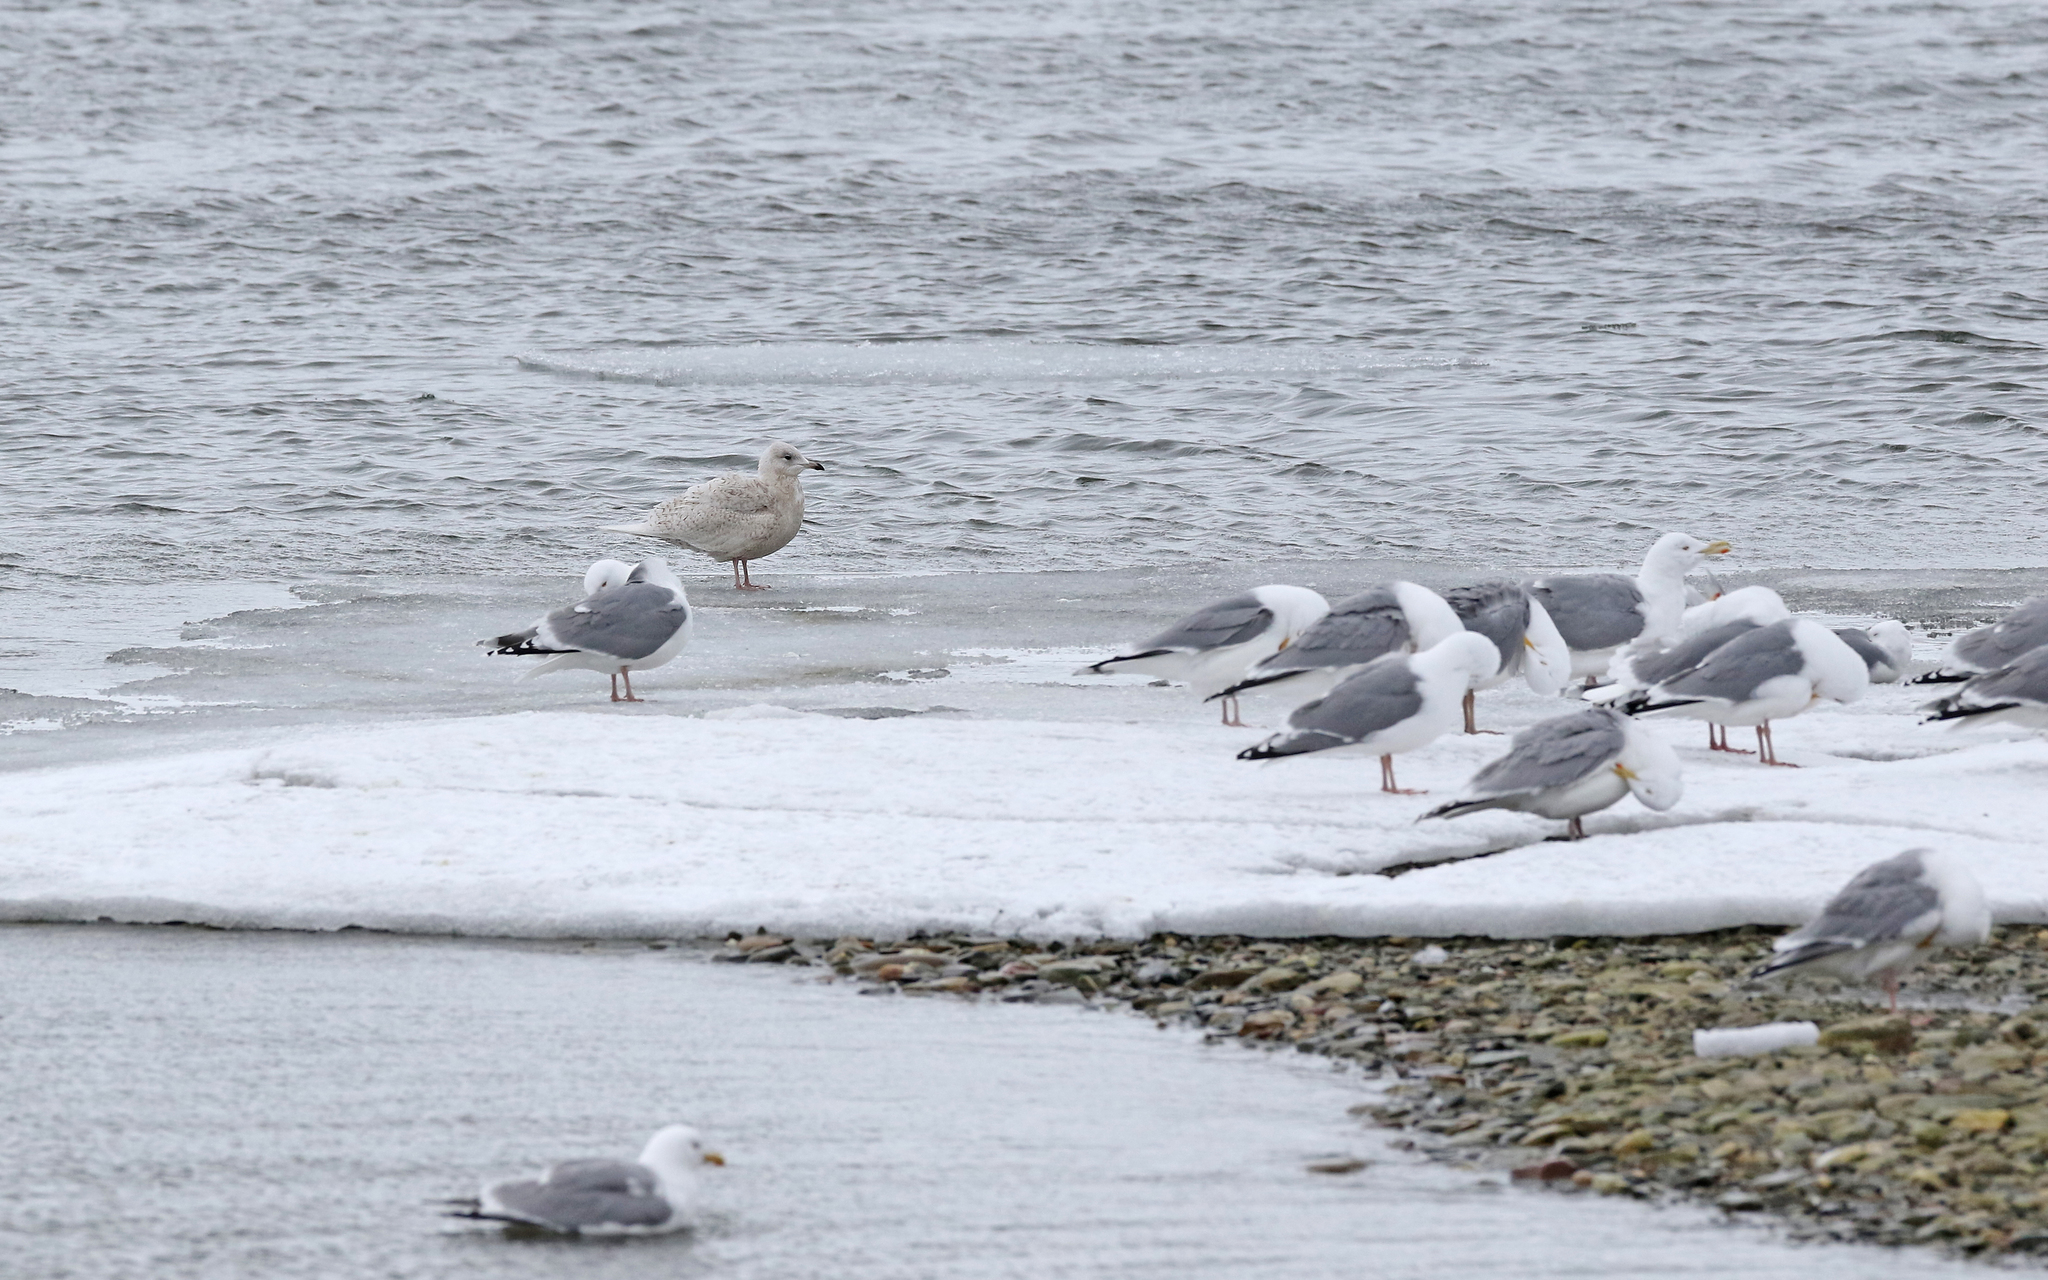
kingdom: Animalia
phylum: Chordata
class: Aves
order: Charadriiformes
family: Laridae
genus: Larus
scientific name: Larus glaucoides
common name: Iceland gull
